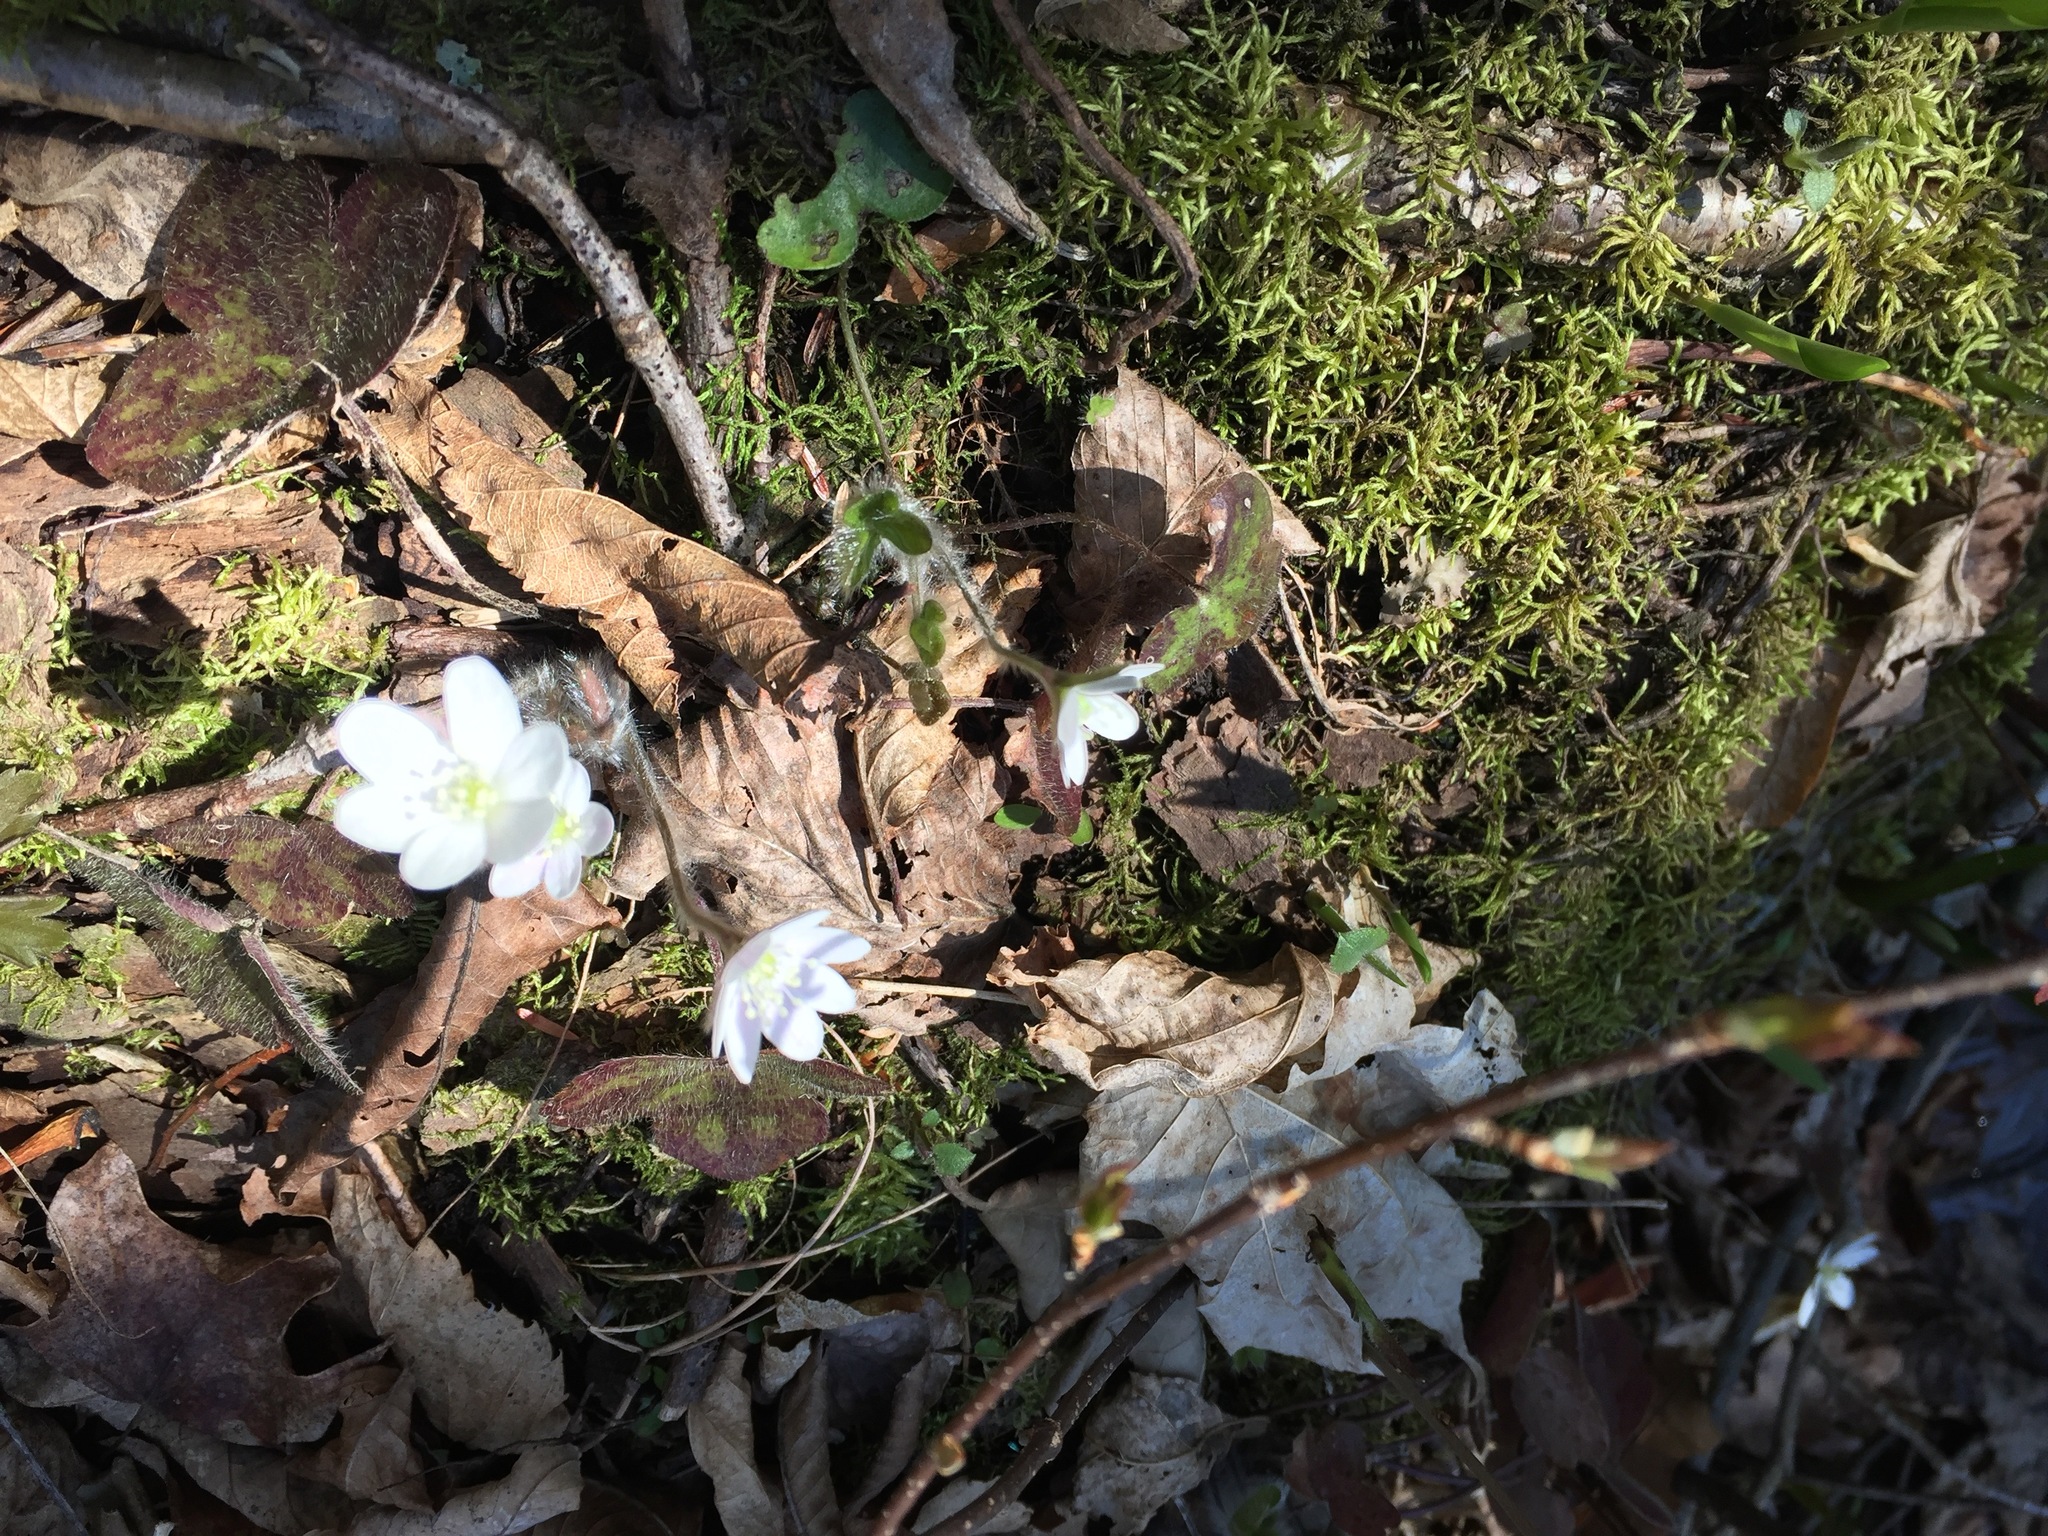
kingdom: Plantae
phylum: Tracheophyta
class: Magnoliopsida
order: Ranunculales
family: Ranunculaceae
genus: Hepatica
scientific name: Hepatica americana
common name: American hepatica
